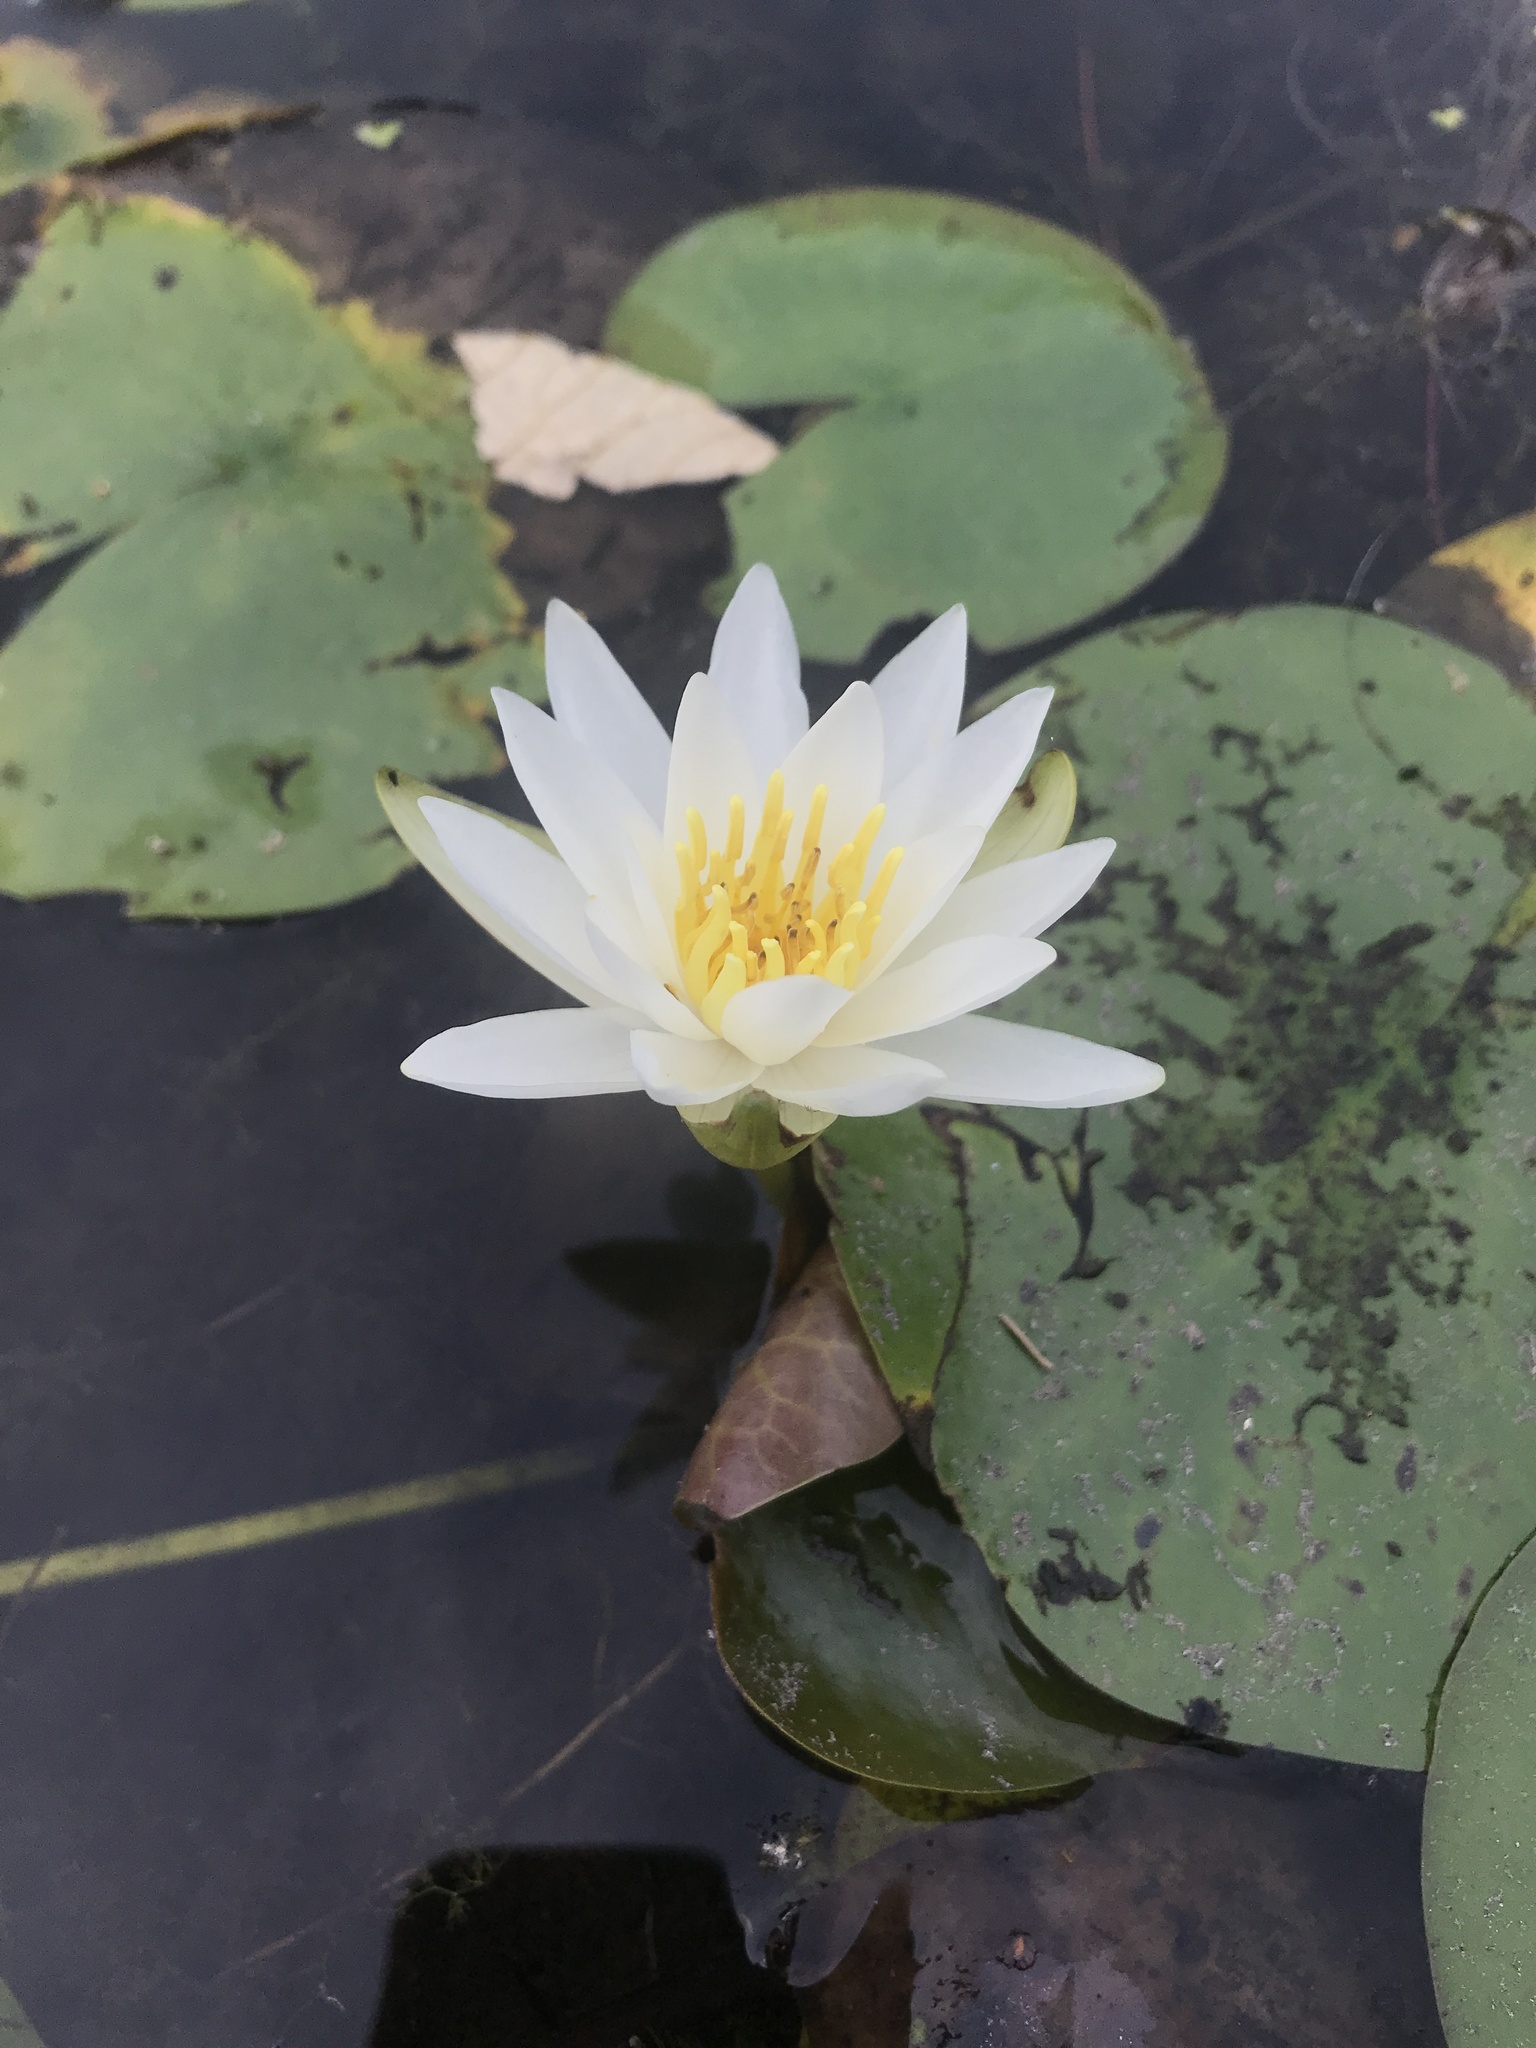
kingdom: Plantae
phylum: Tracheophyta
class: Magnoliopsida
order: Nymphaeales
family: Nymphaeaceae
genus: Nymphaea
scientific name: Nymphaea odorata
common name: Fragrant water-lily
